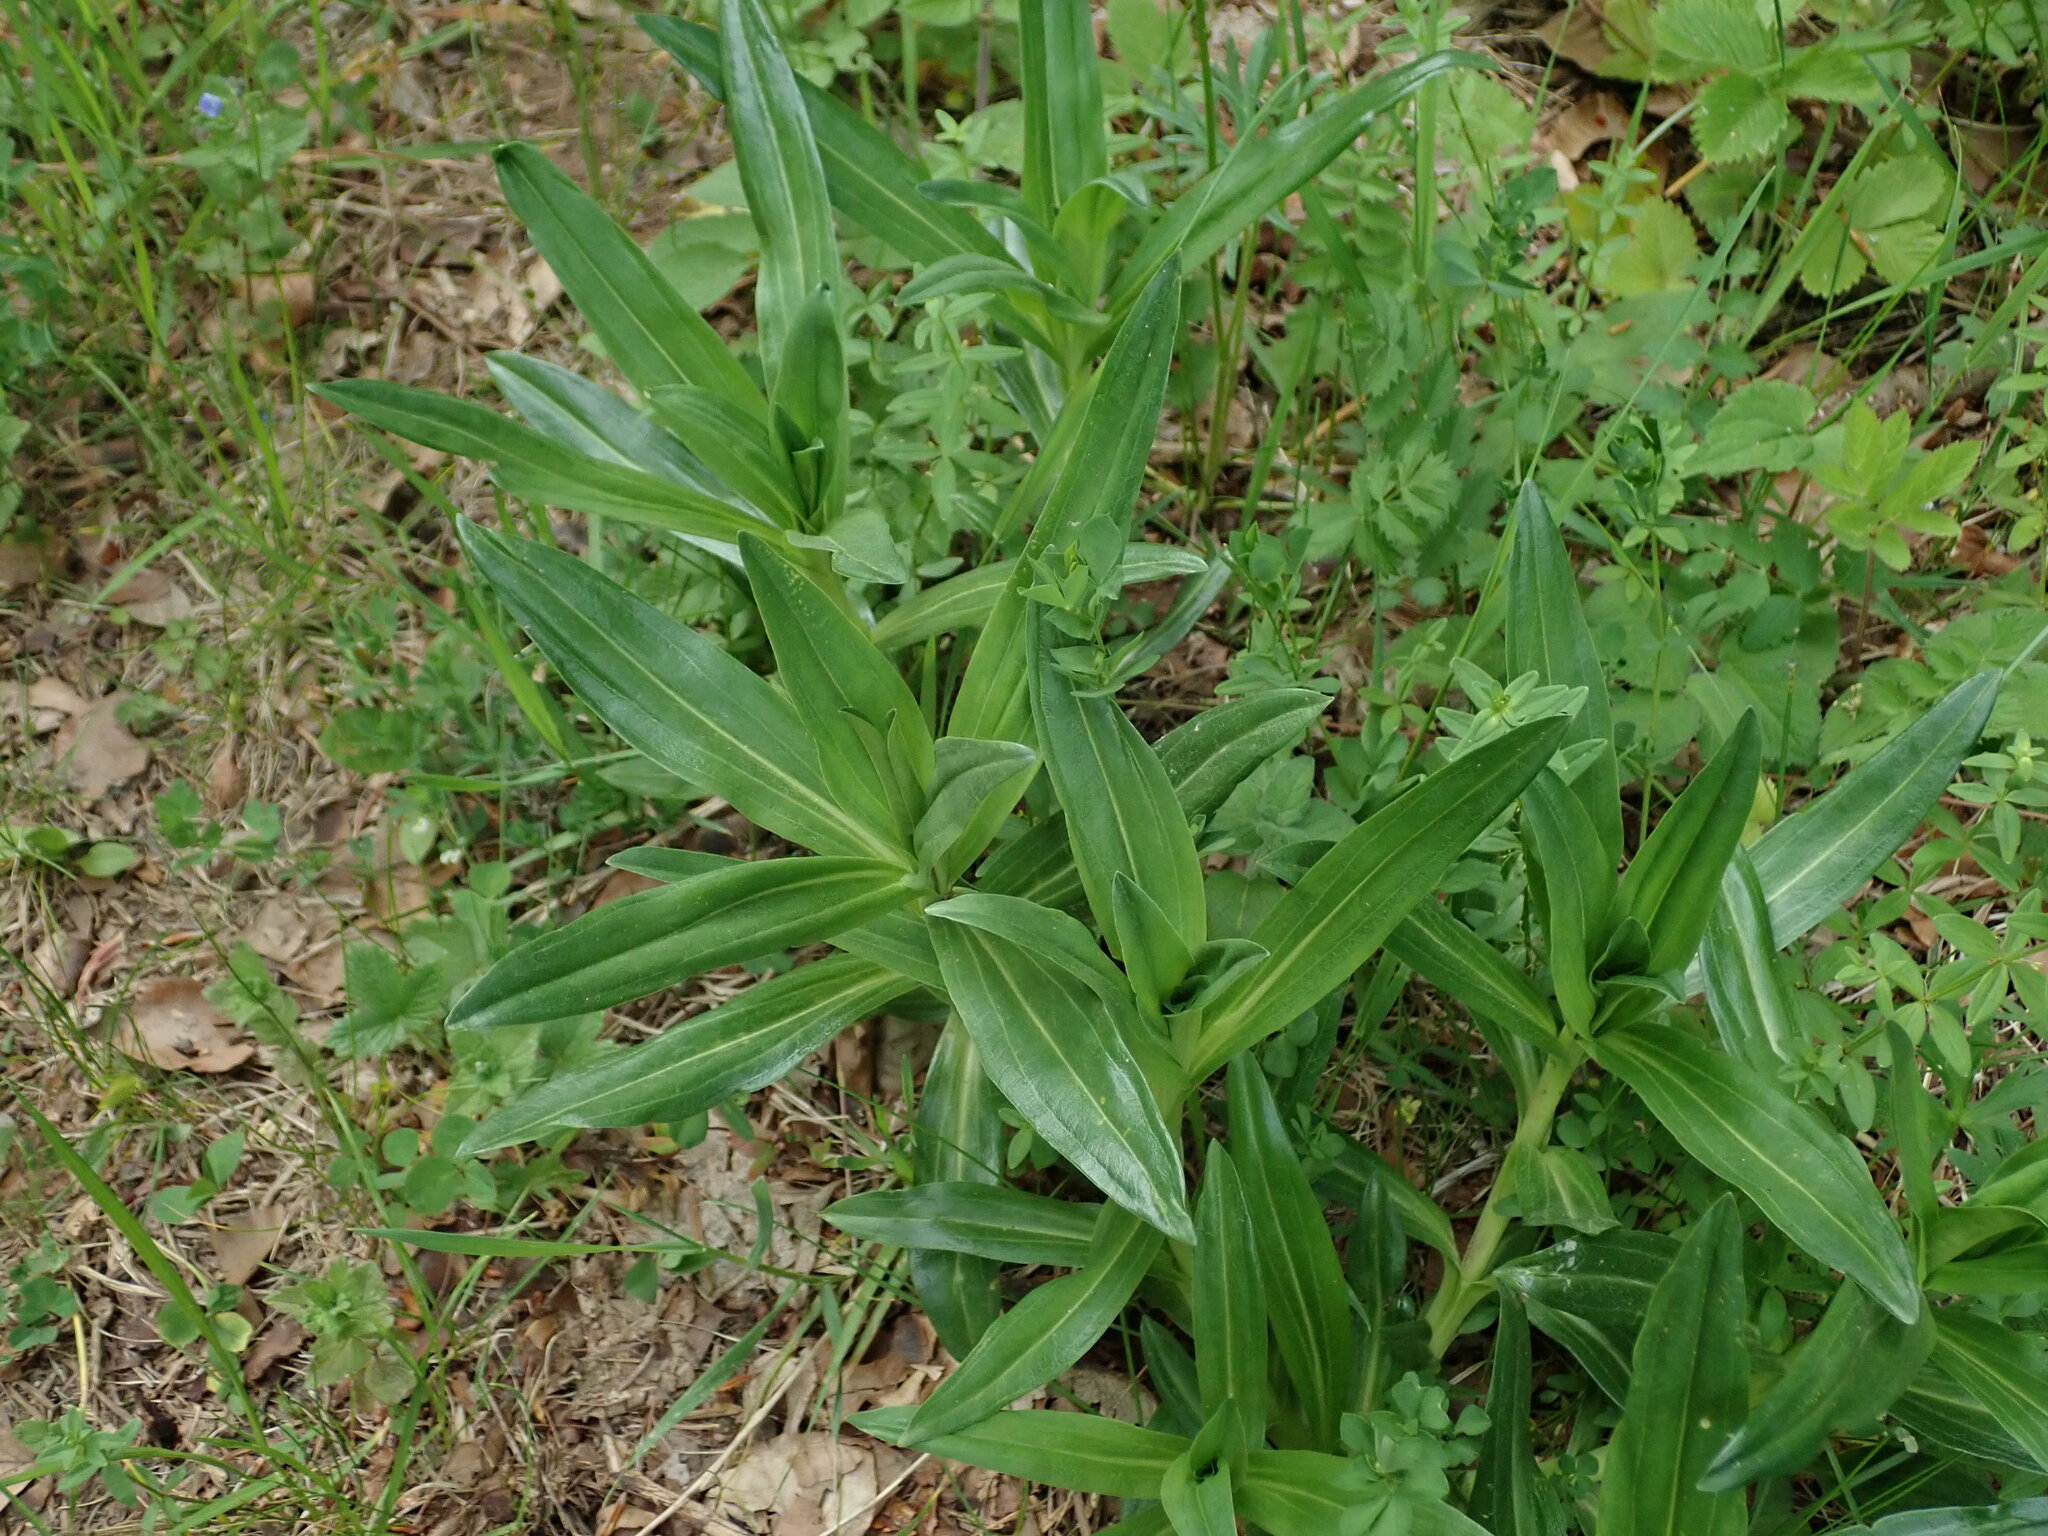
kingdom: Plantae
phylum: Tracheophyta
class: Magnoliopsida
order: Gentianales
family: Gentianaceae
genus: Gentiana
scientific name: Gentiana cruciata
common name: Cross gentian
